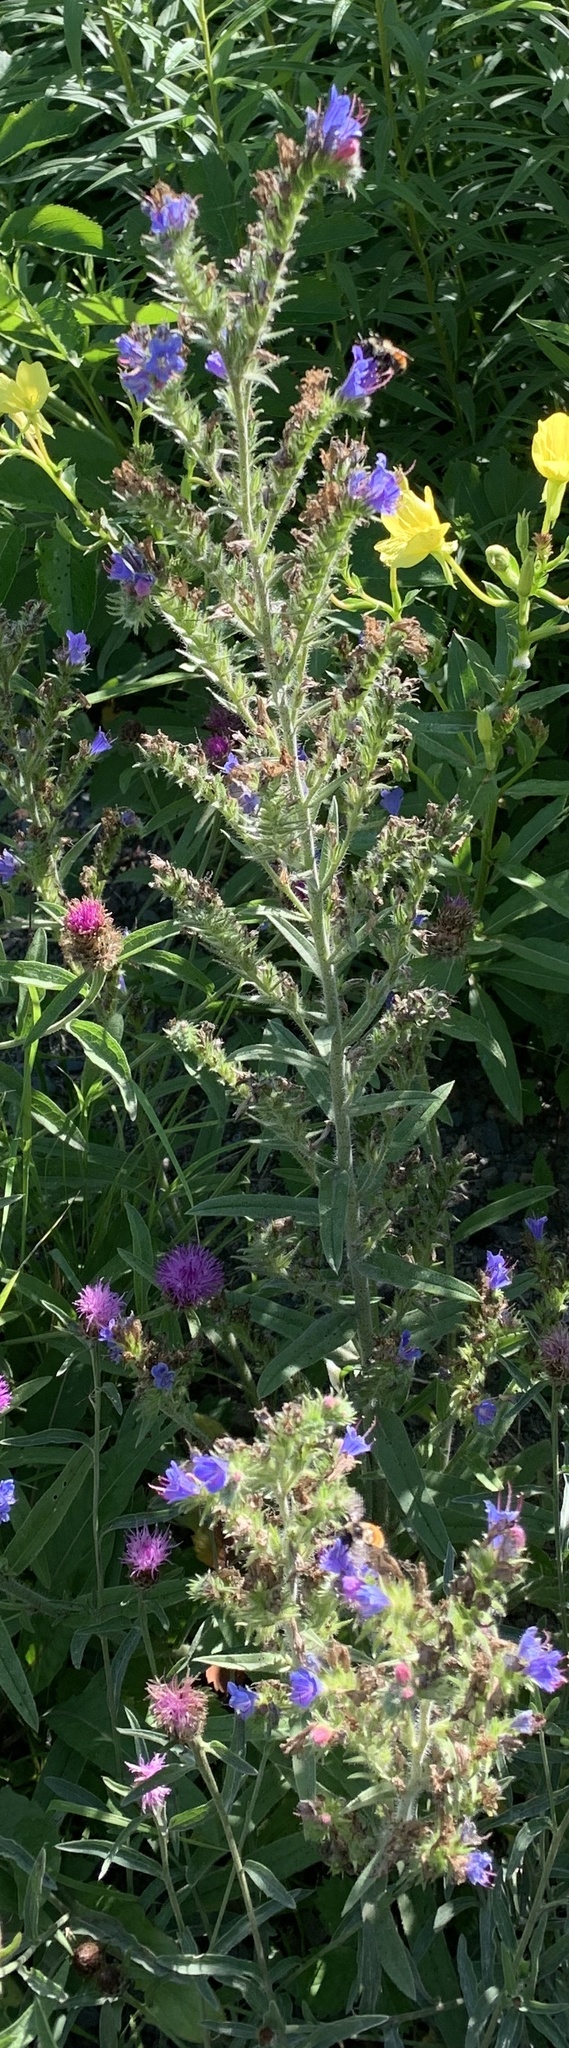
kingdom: Plantae
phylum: Tracheophyta
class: Magnoliopsida
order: Boraginales
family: Boraginaceae
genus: Echium
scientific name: Echium vulgare
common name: Common viper's bugloss
